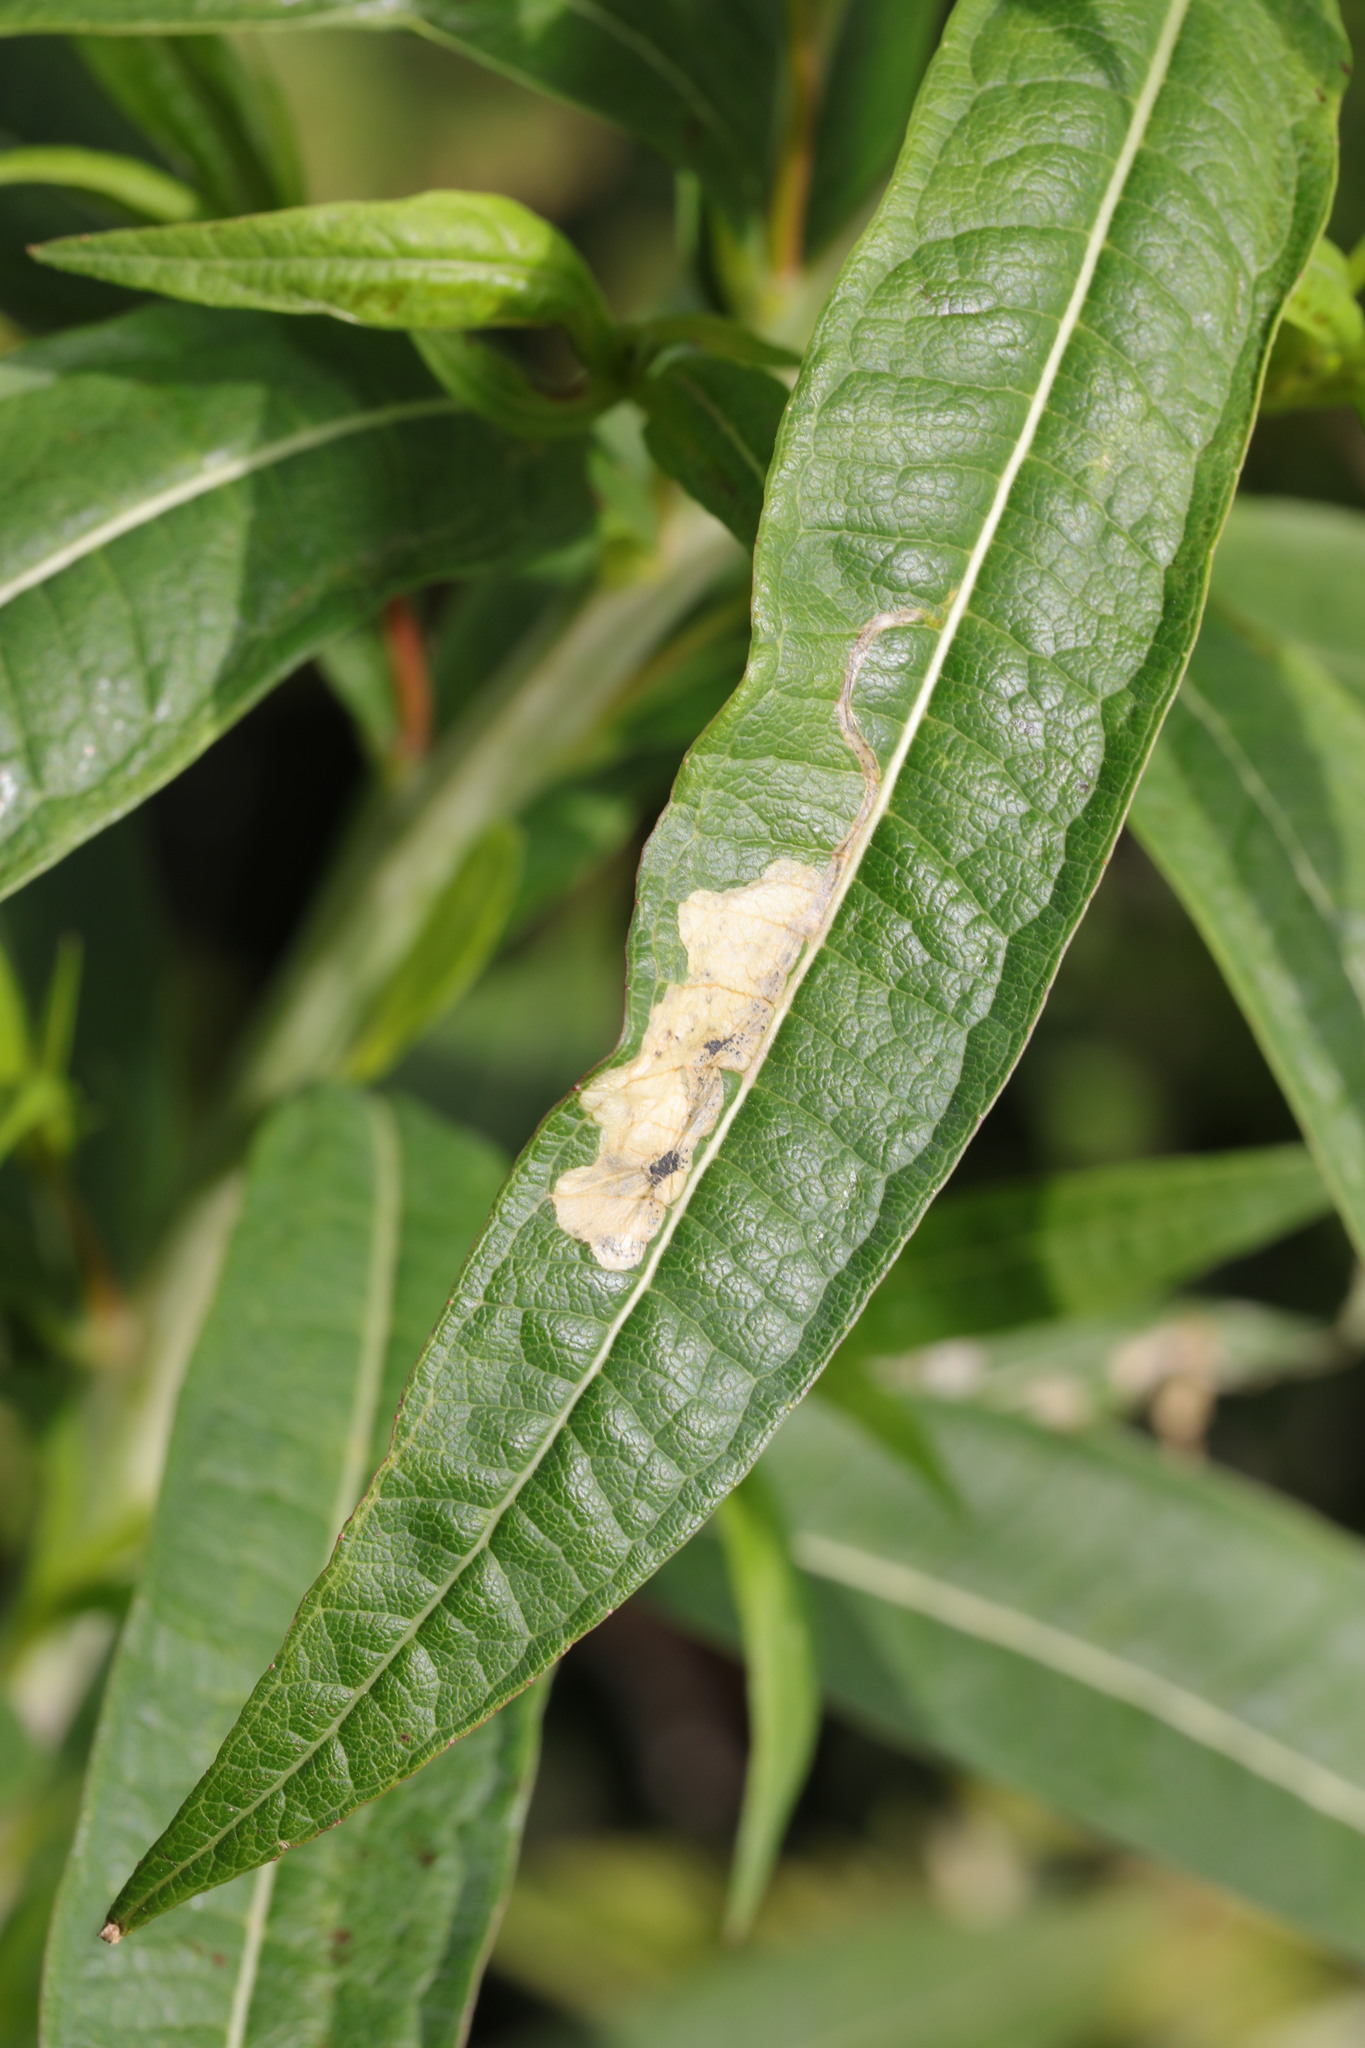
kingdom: Animalia
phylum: Arthropoda
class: Insecta
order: Lepidoptera
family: Momphidae
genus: Mompha
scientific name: Mompha raschkiella
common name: Little cosmet
